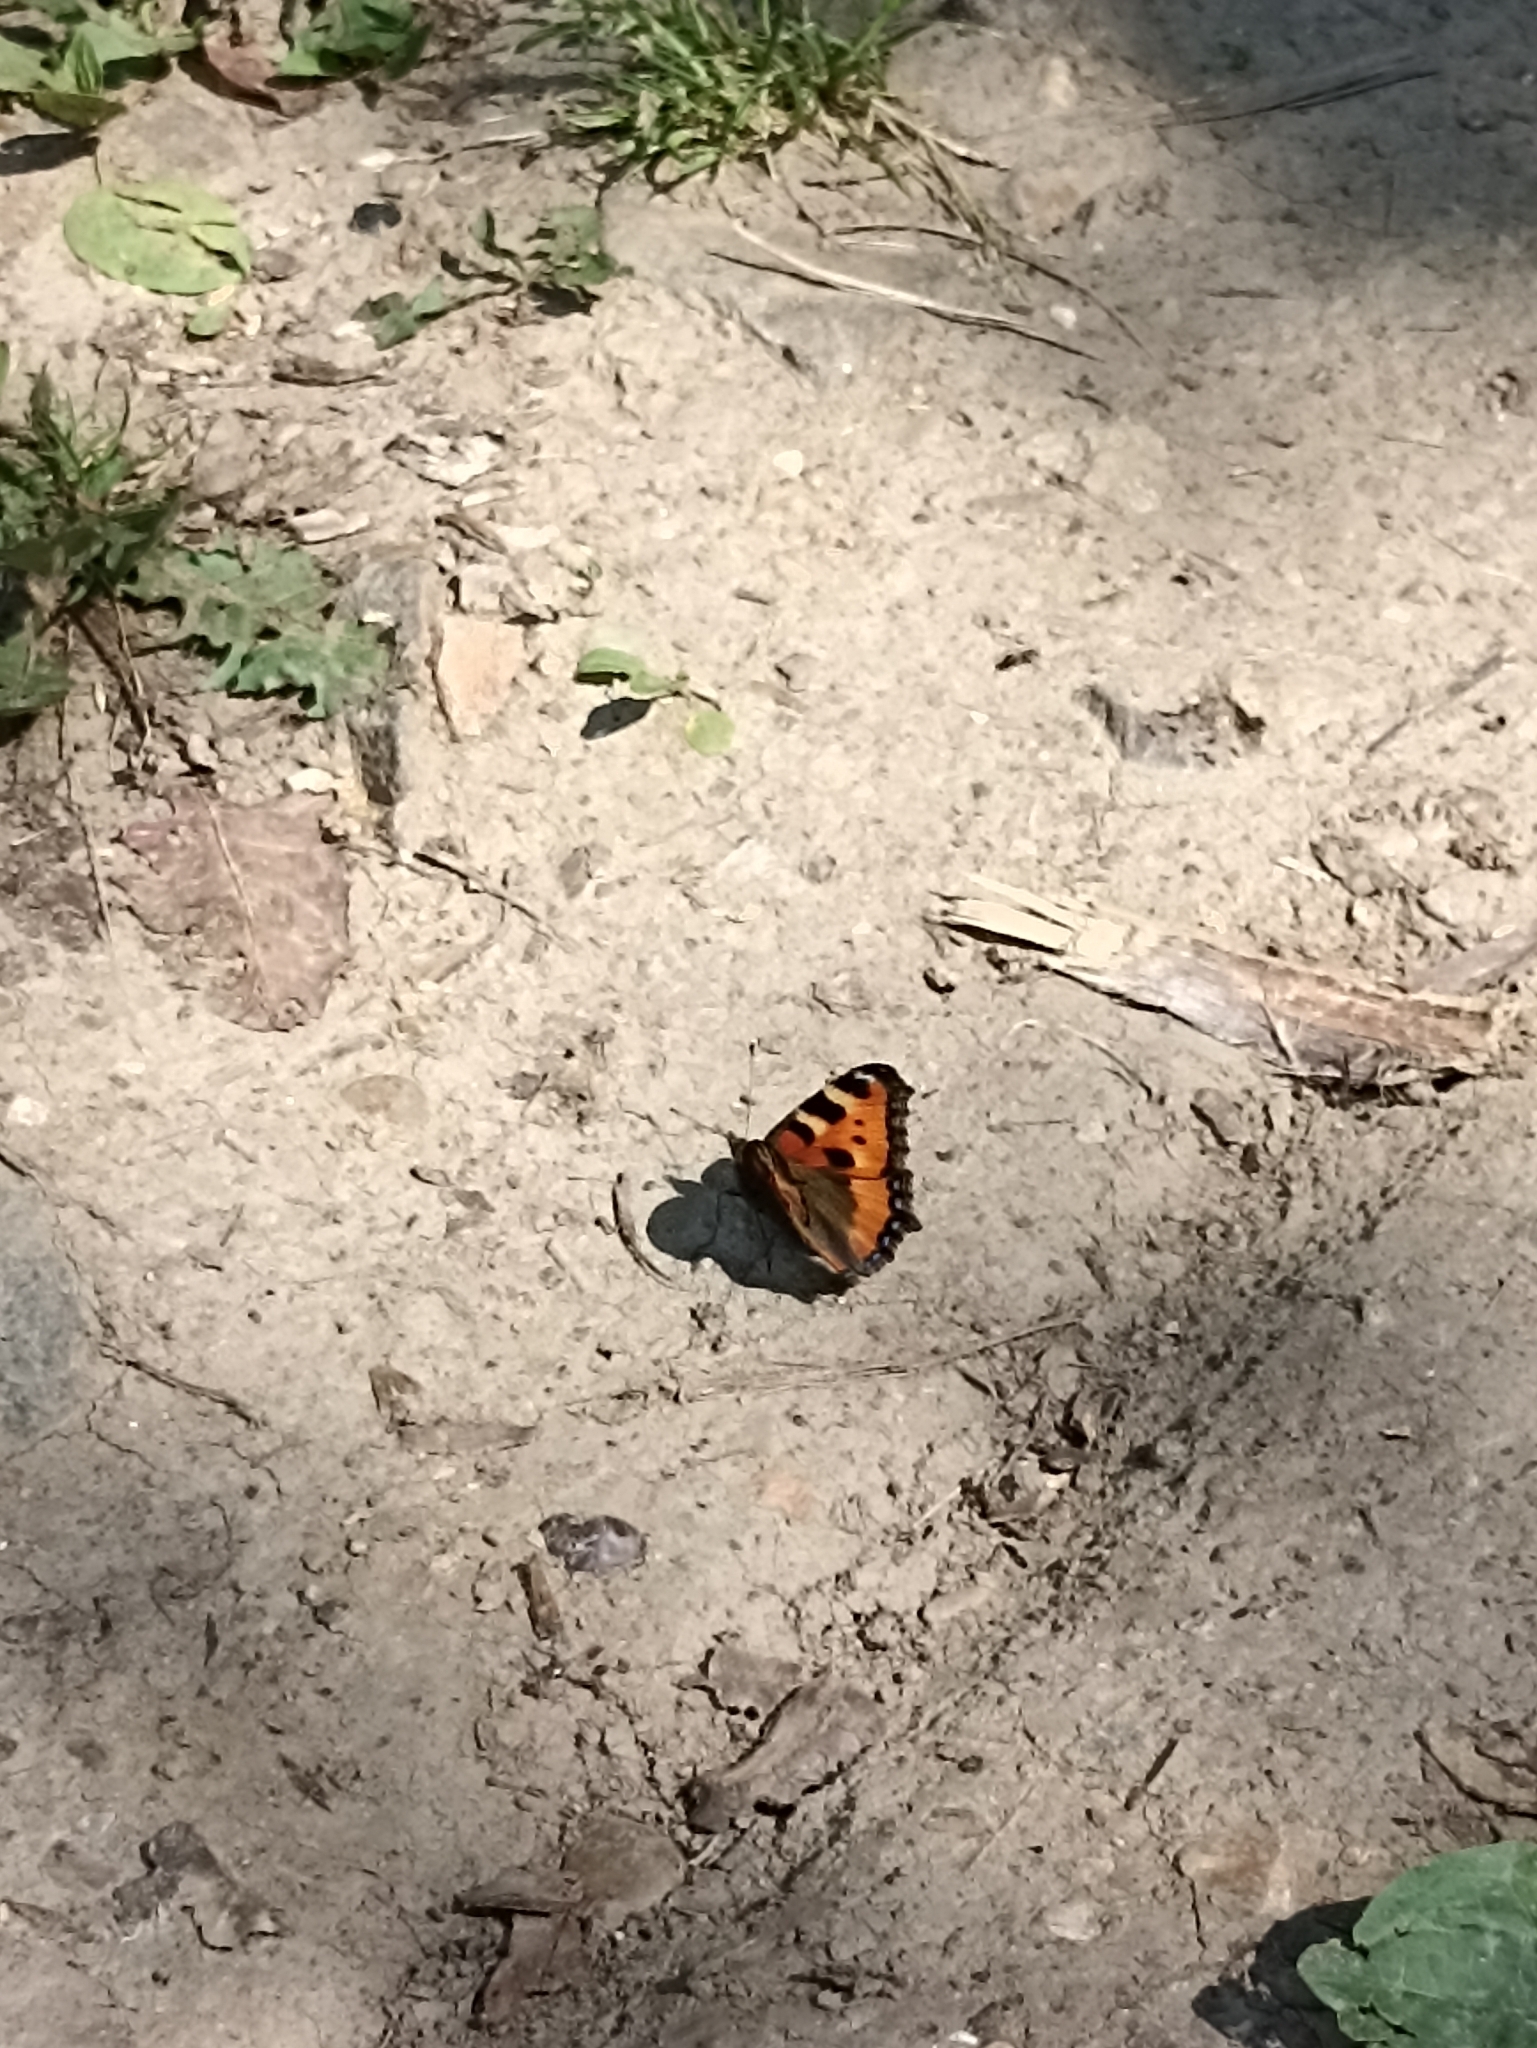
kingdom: Animalia
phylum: Arthropoda
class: Insecta
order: Lepidoptera
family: Nymphalidae
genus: Aglais
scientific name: Aglais urticae
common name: Small tortoiseshell
